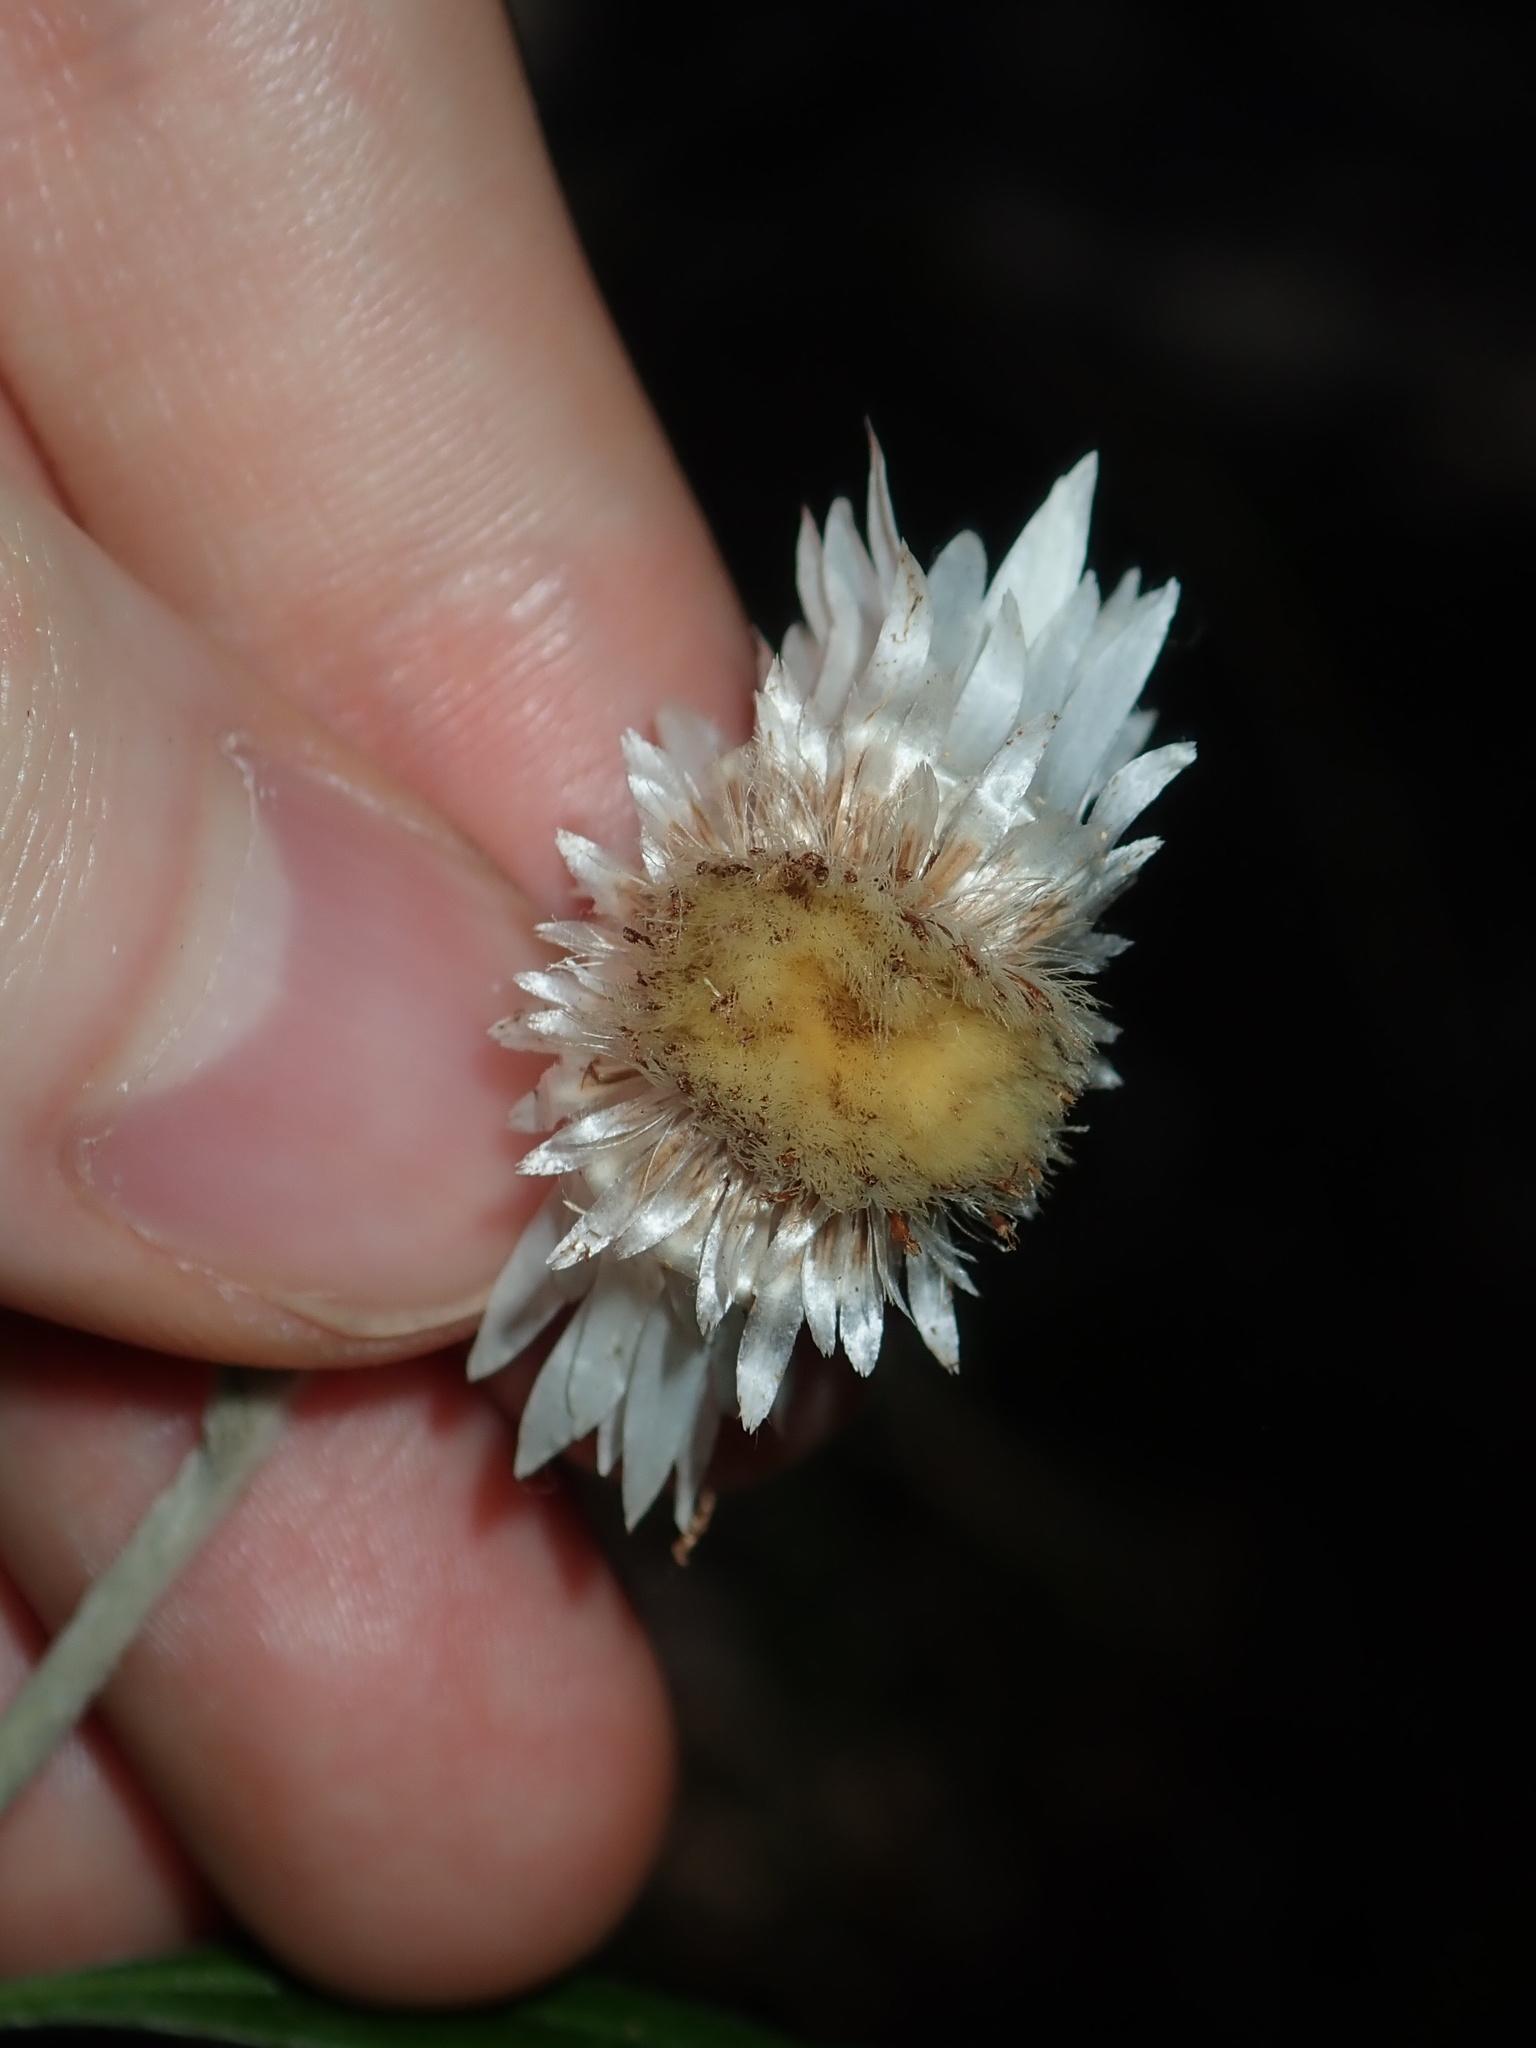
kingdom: Plantae
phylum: Tracheophyta
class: Magnoliopsida
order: Asterales
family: Asteraceae
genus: Leucozoma
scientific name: Leucozoma elatum
